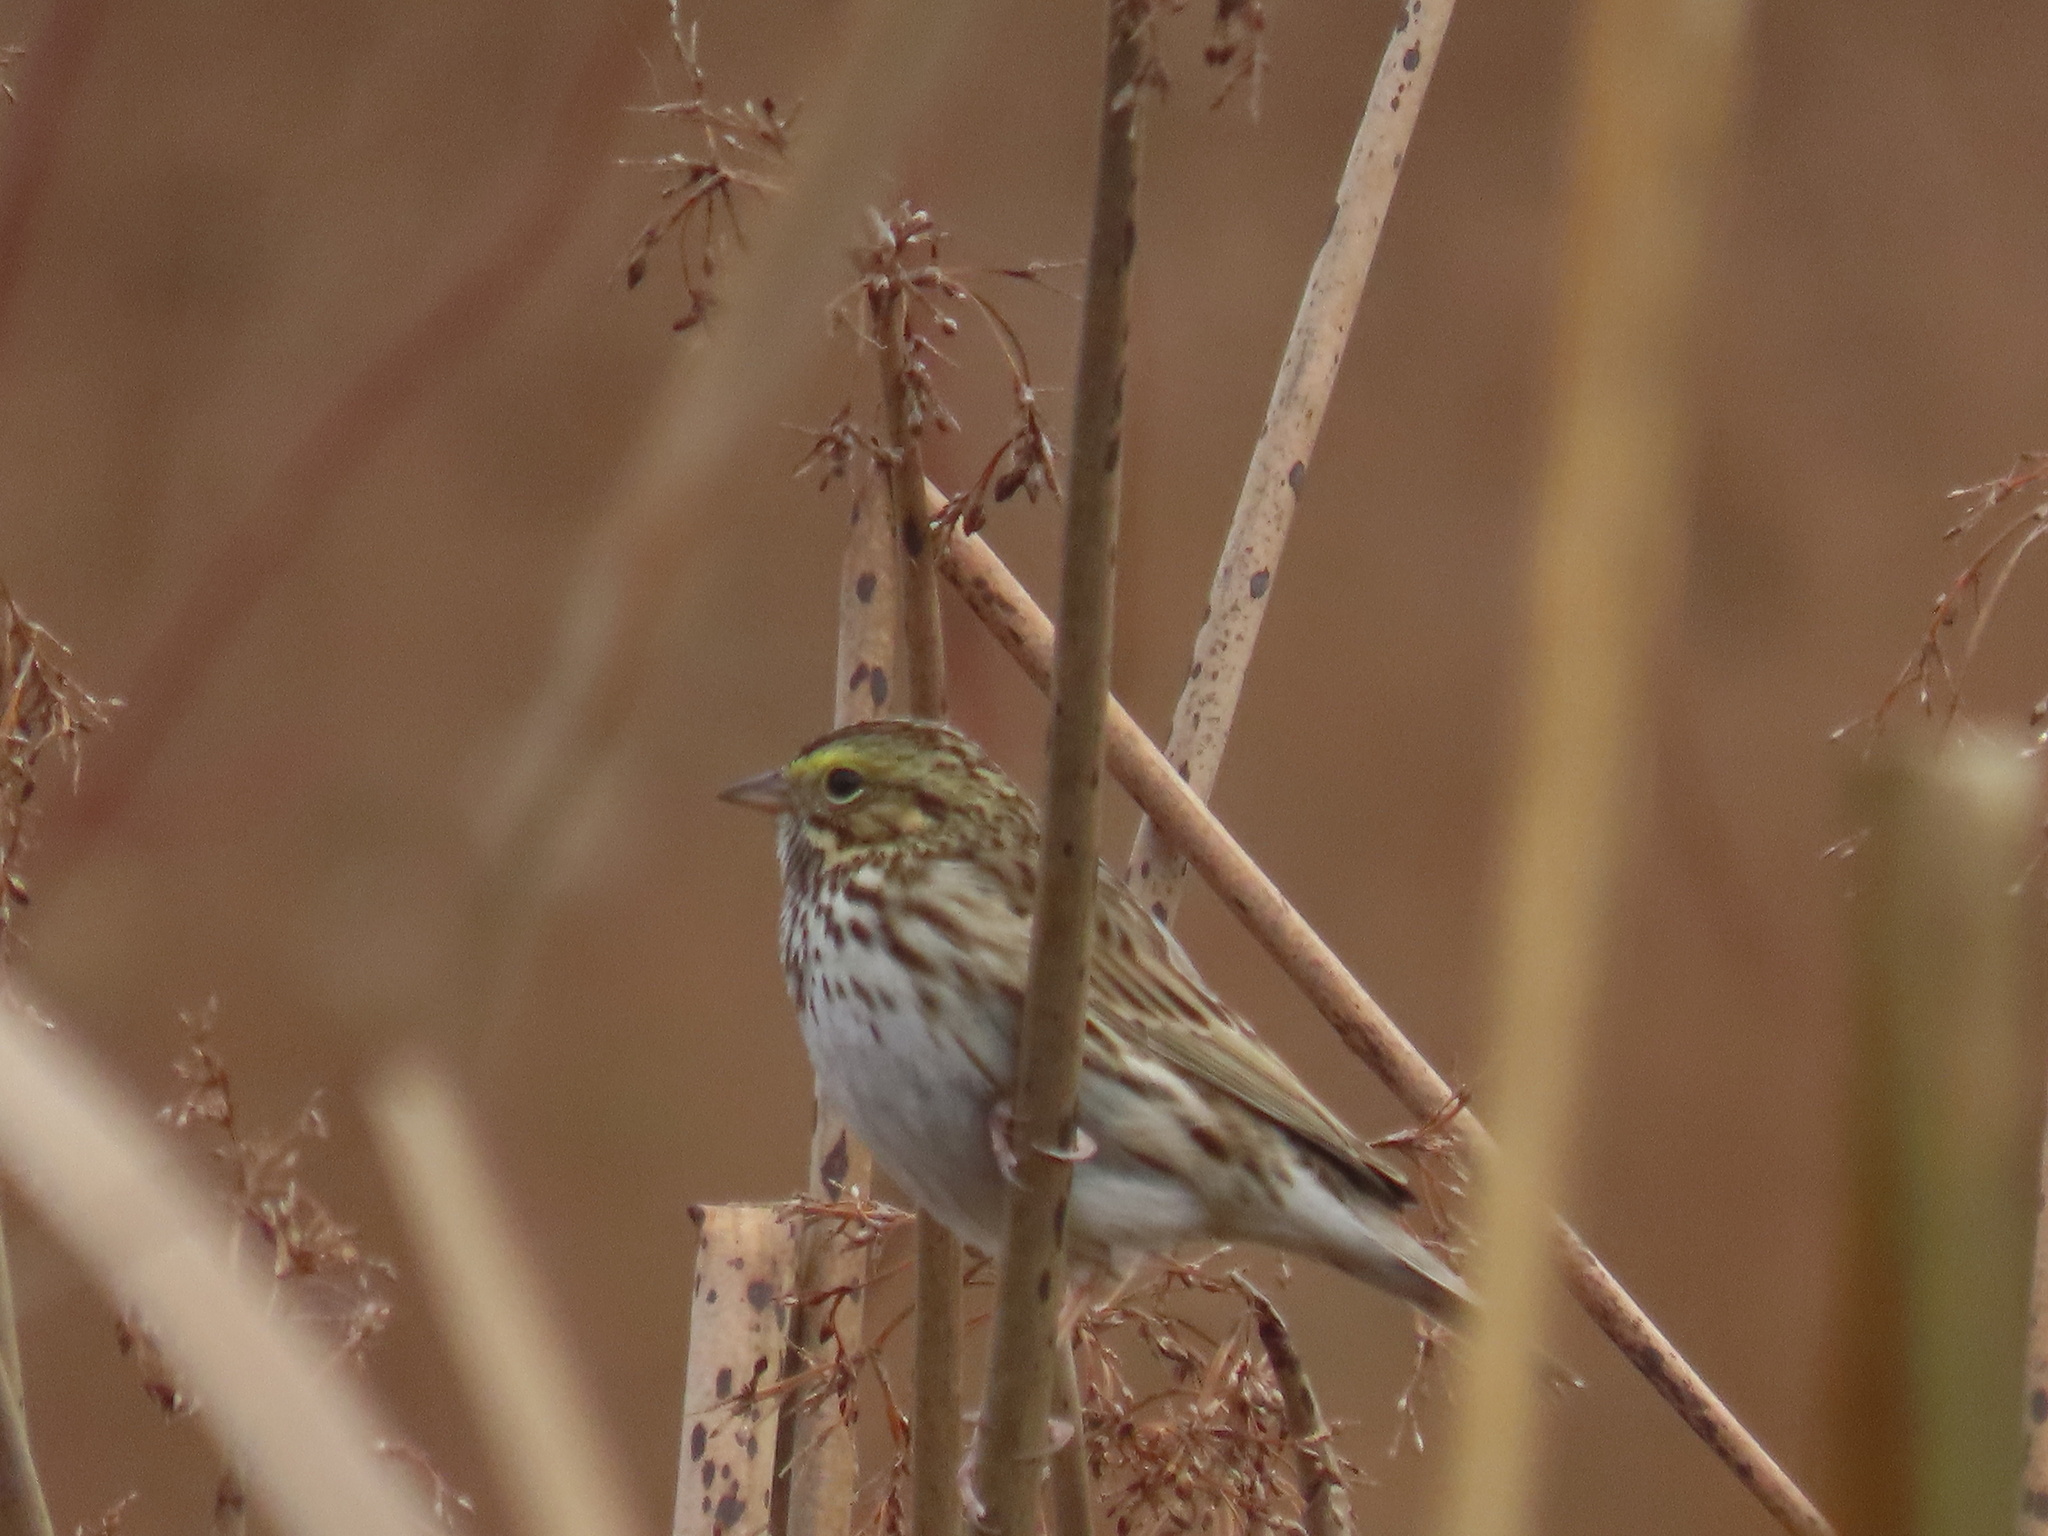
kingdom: Animalia
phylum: Chordata
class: Aves
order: Passeriformes
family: Passerellidae
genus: Passerculus
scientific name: Passerculus sandwichensis
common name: Savannah sparrow
